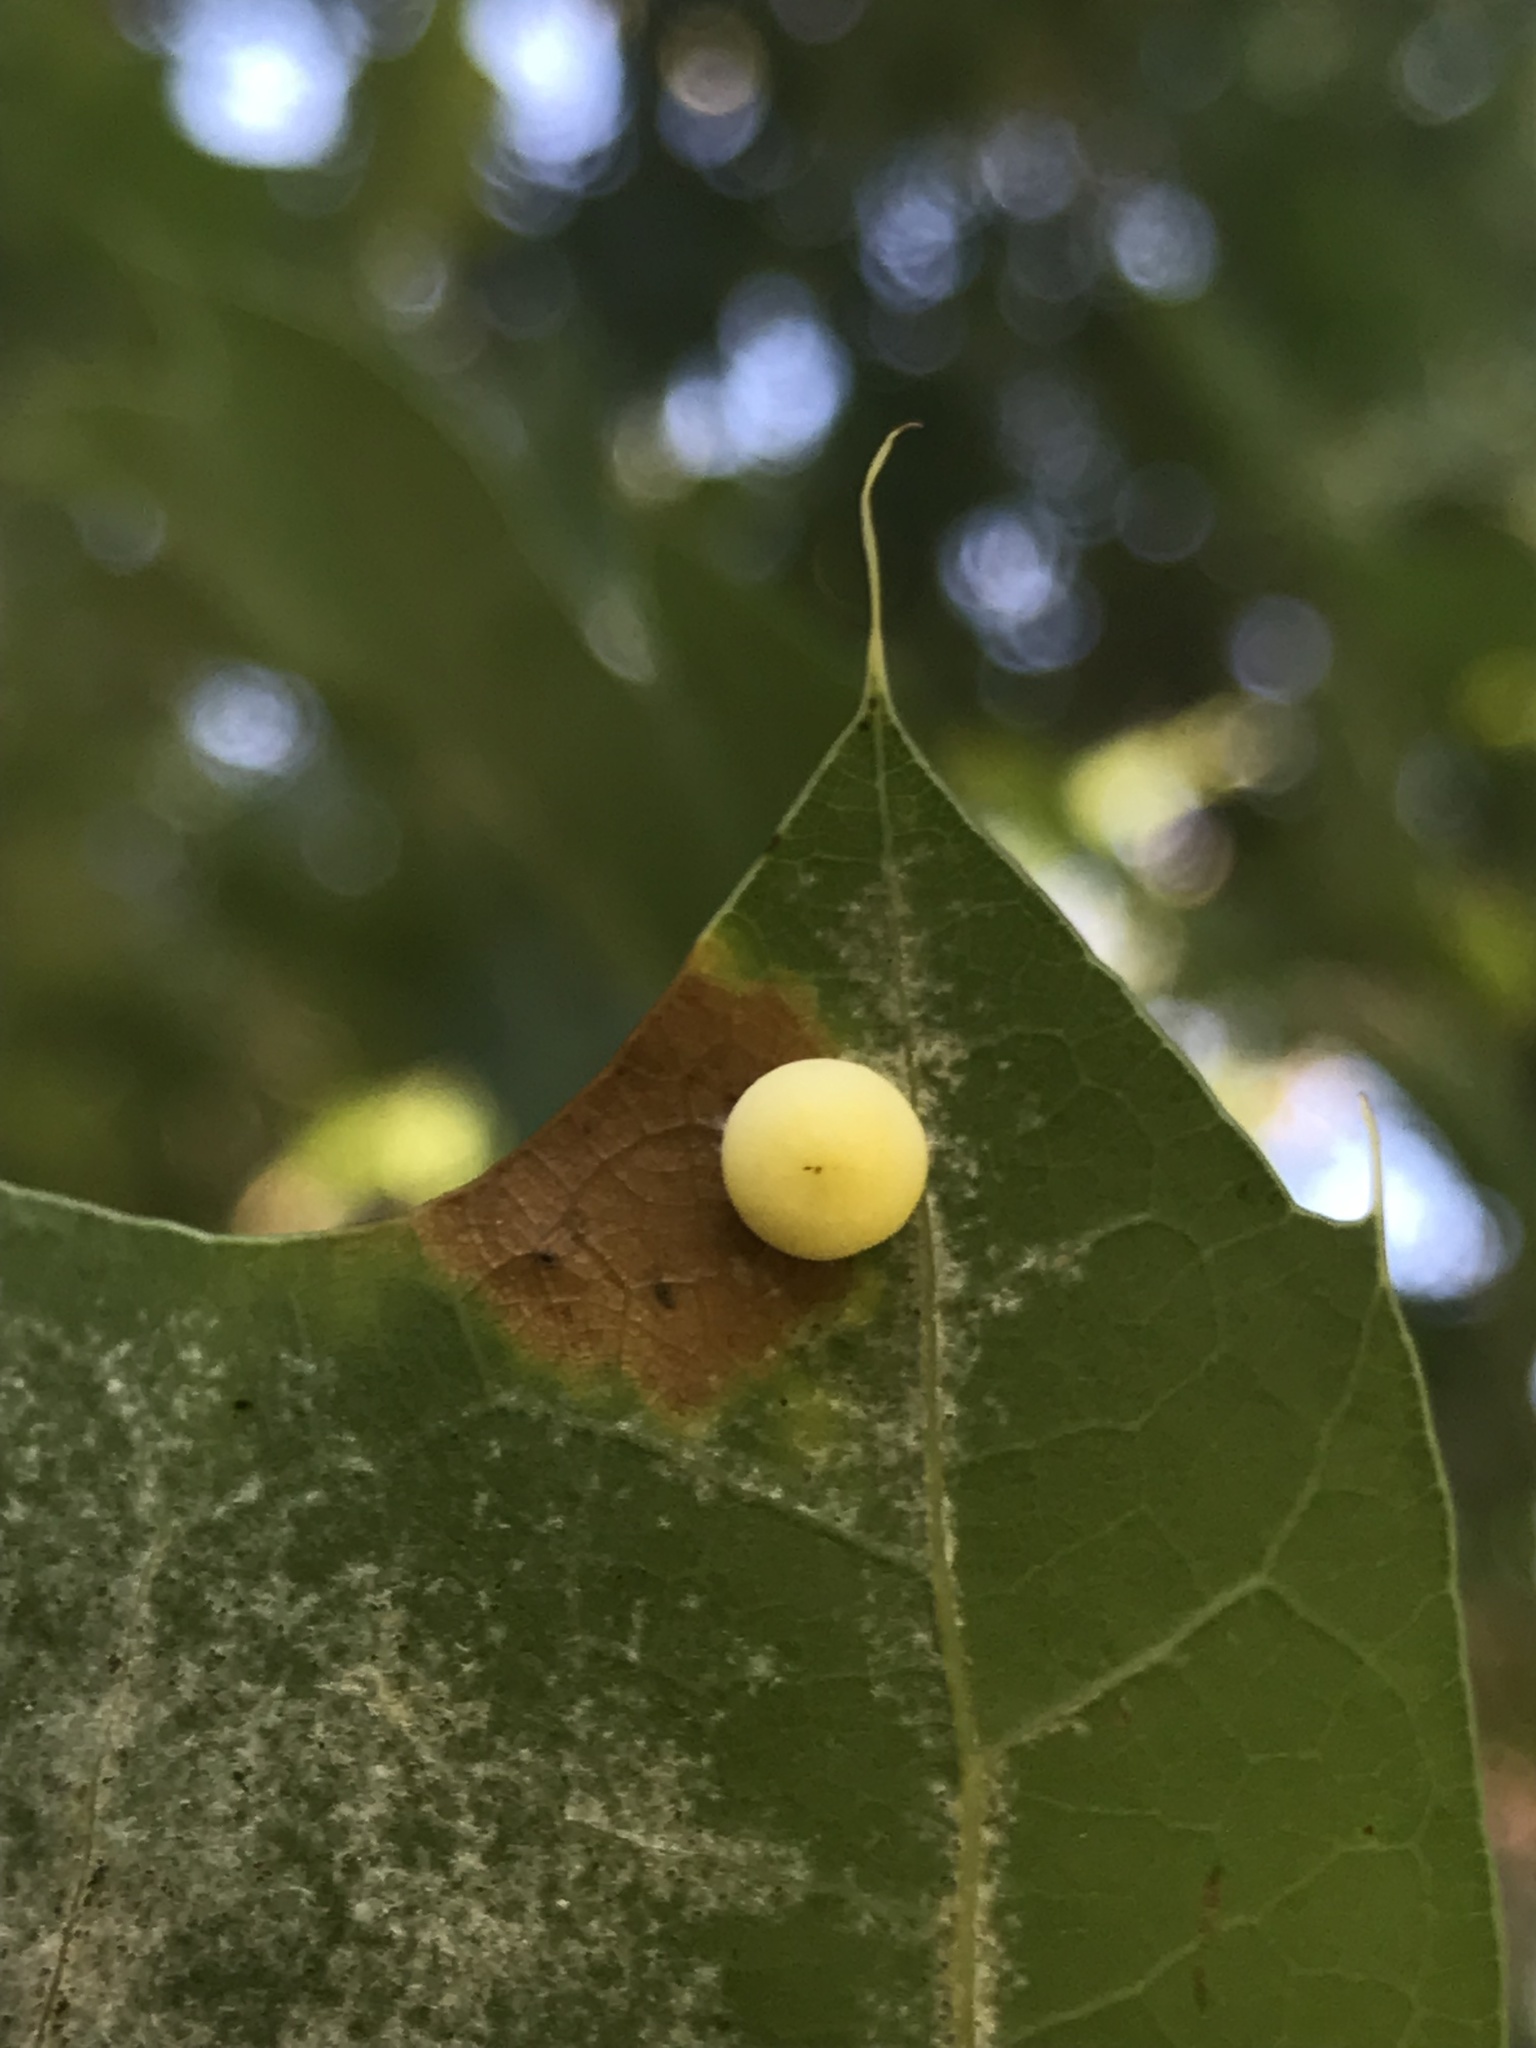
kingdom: Animalia
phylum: Arthropoda
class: Insecta
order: Hymenoptera
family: Cynipidae
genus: Zopheroteras
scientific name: Zopheroteras
